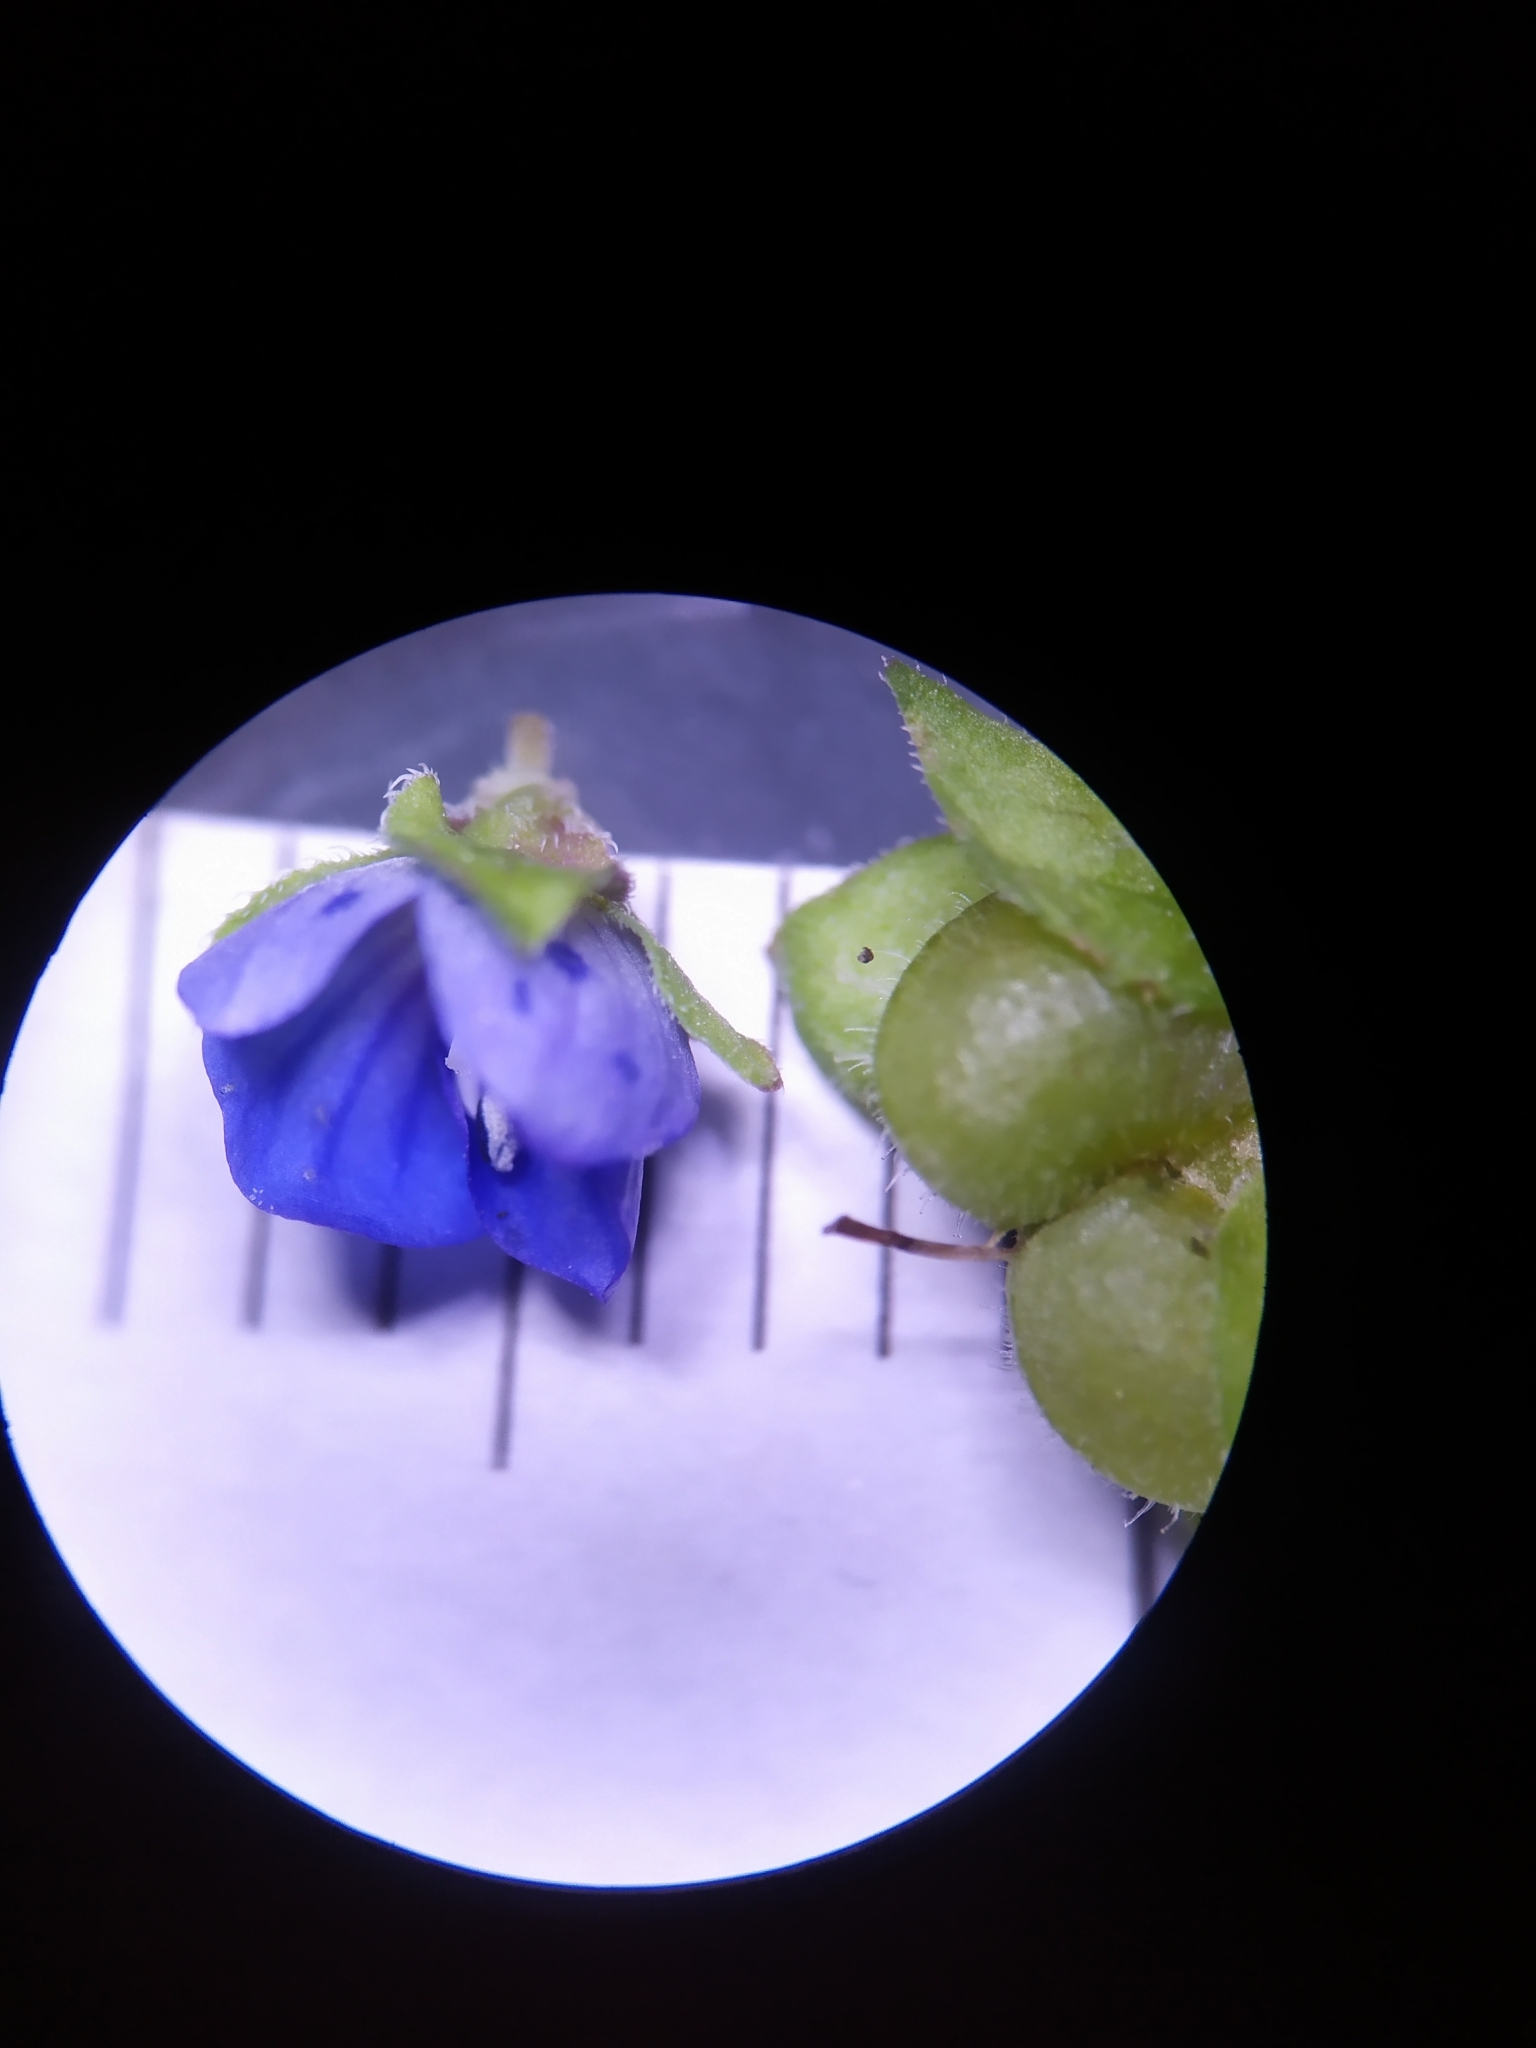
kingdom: Plantae
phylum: Tracheophyta
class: Magnoliopsida
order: Lamiales
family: Plantaginaceae
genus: Veronica
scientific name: Veronica polita
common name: Grey field-speedwell
